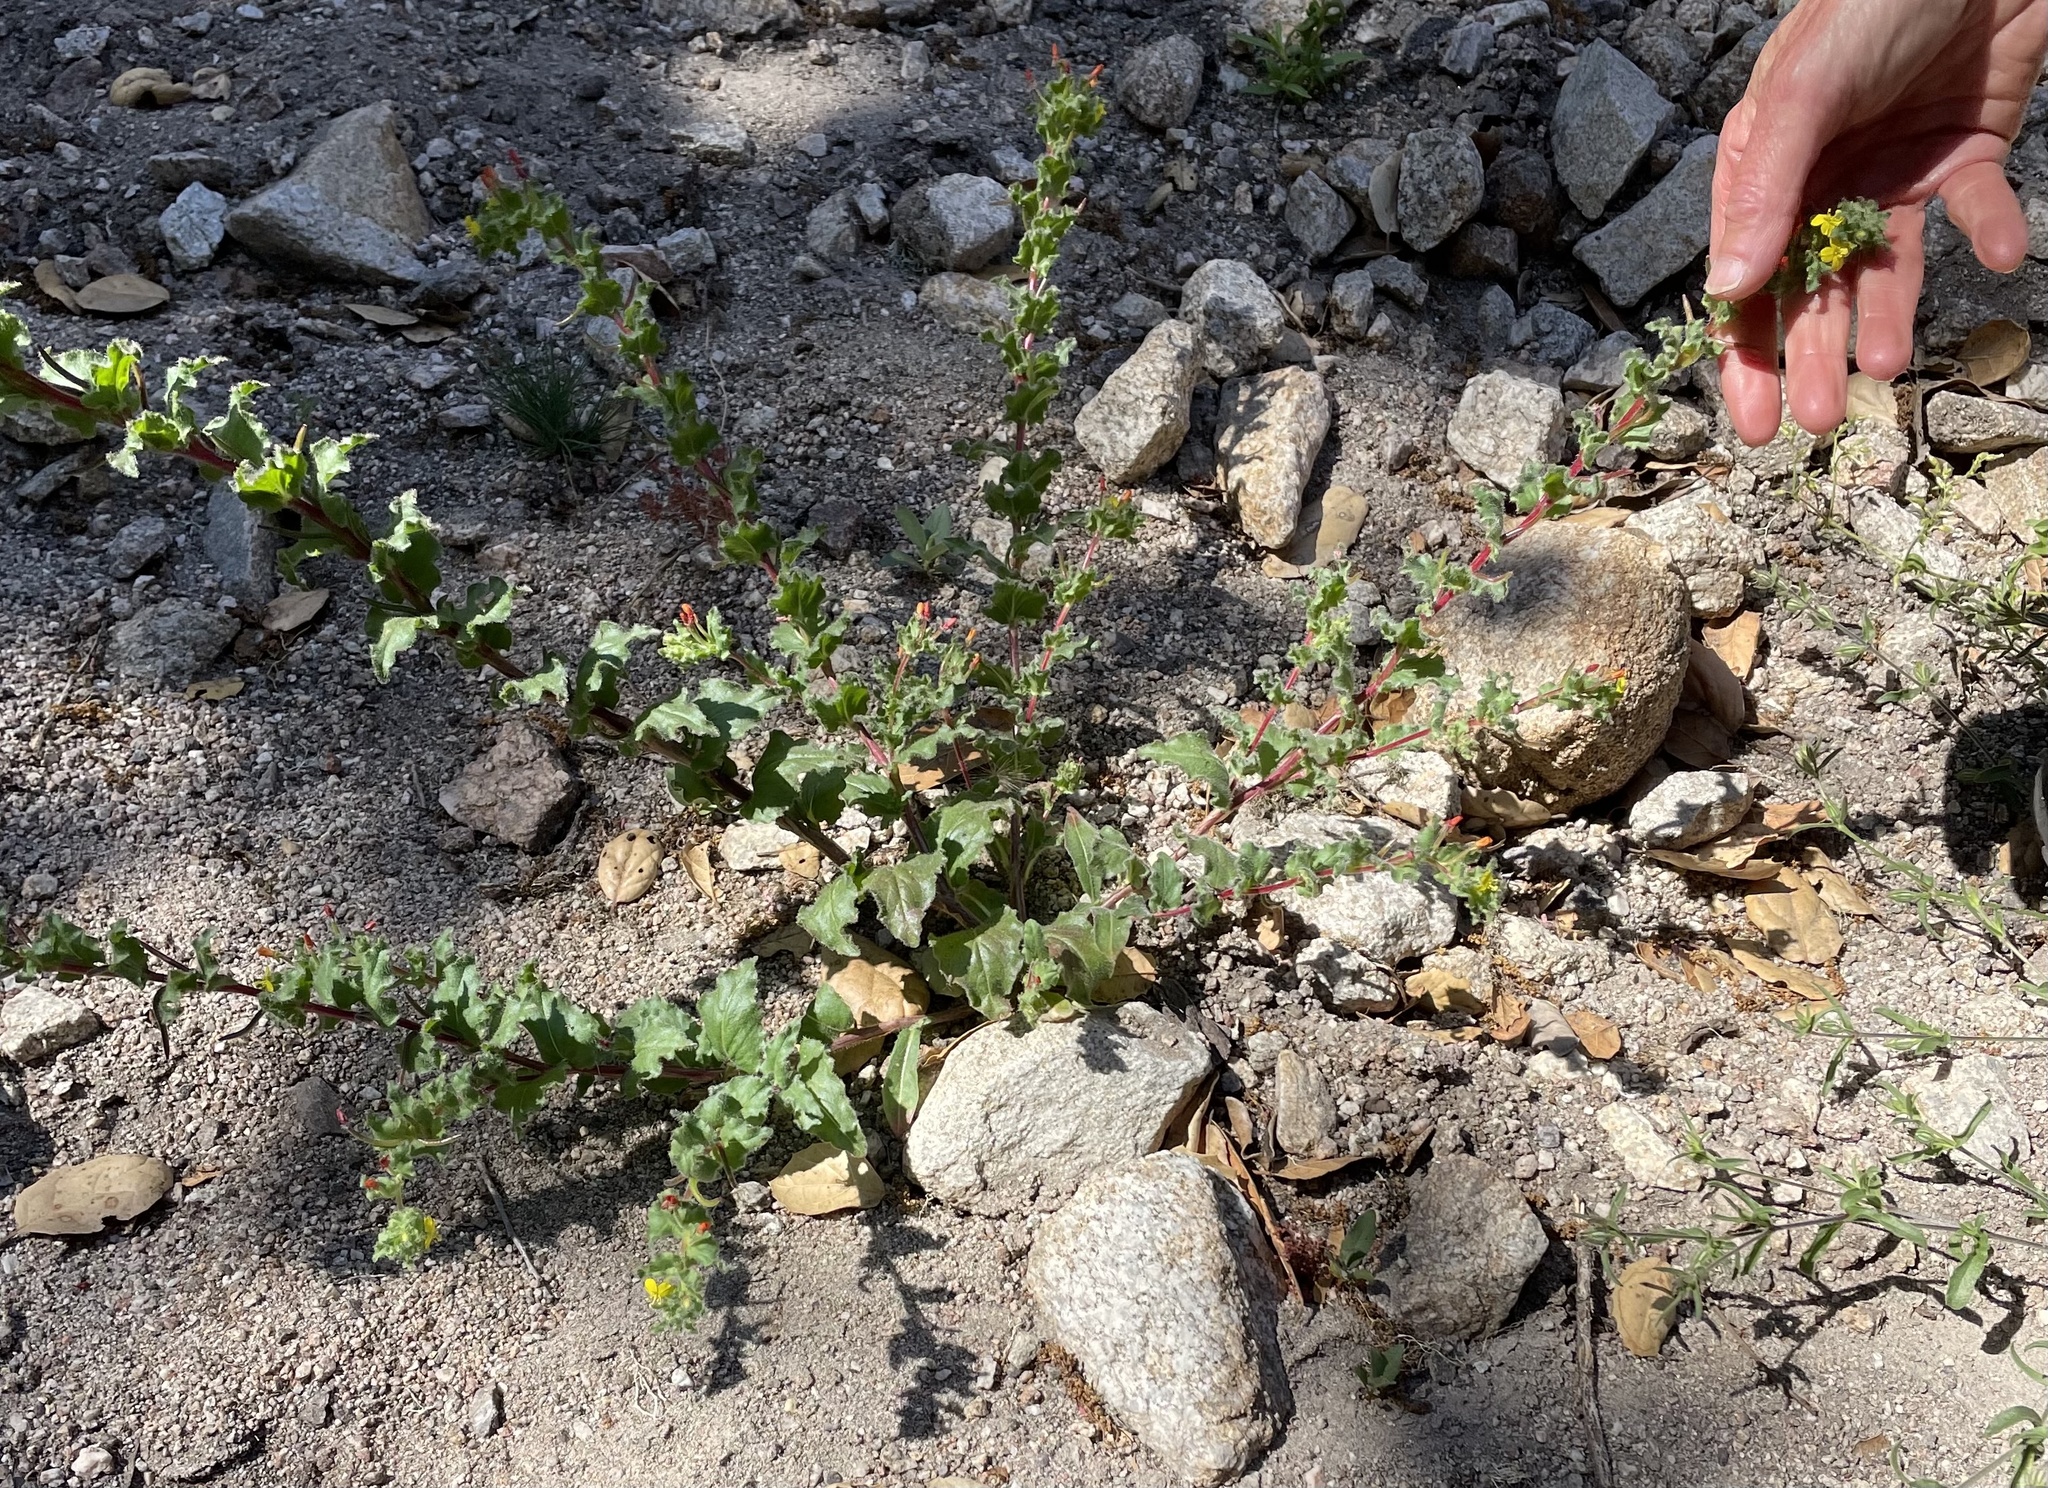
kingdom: Plantae
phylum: Tracheophyta
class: Magnoliopsida
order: Myrtales
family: Onagraceae
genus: Camissoniopsis
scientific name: Camissoniopsis micrantha
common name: Miniature suncup
